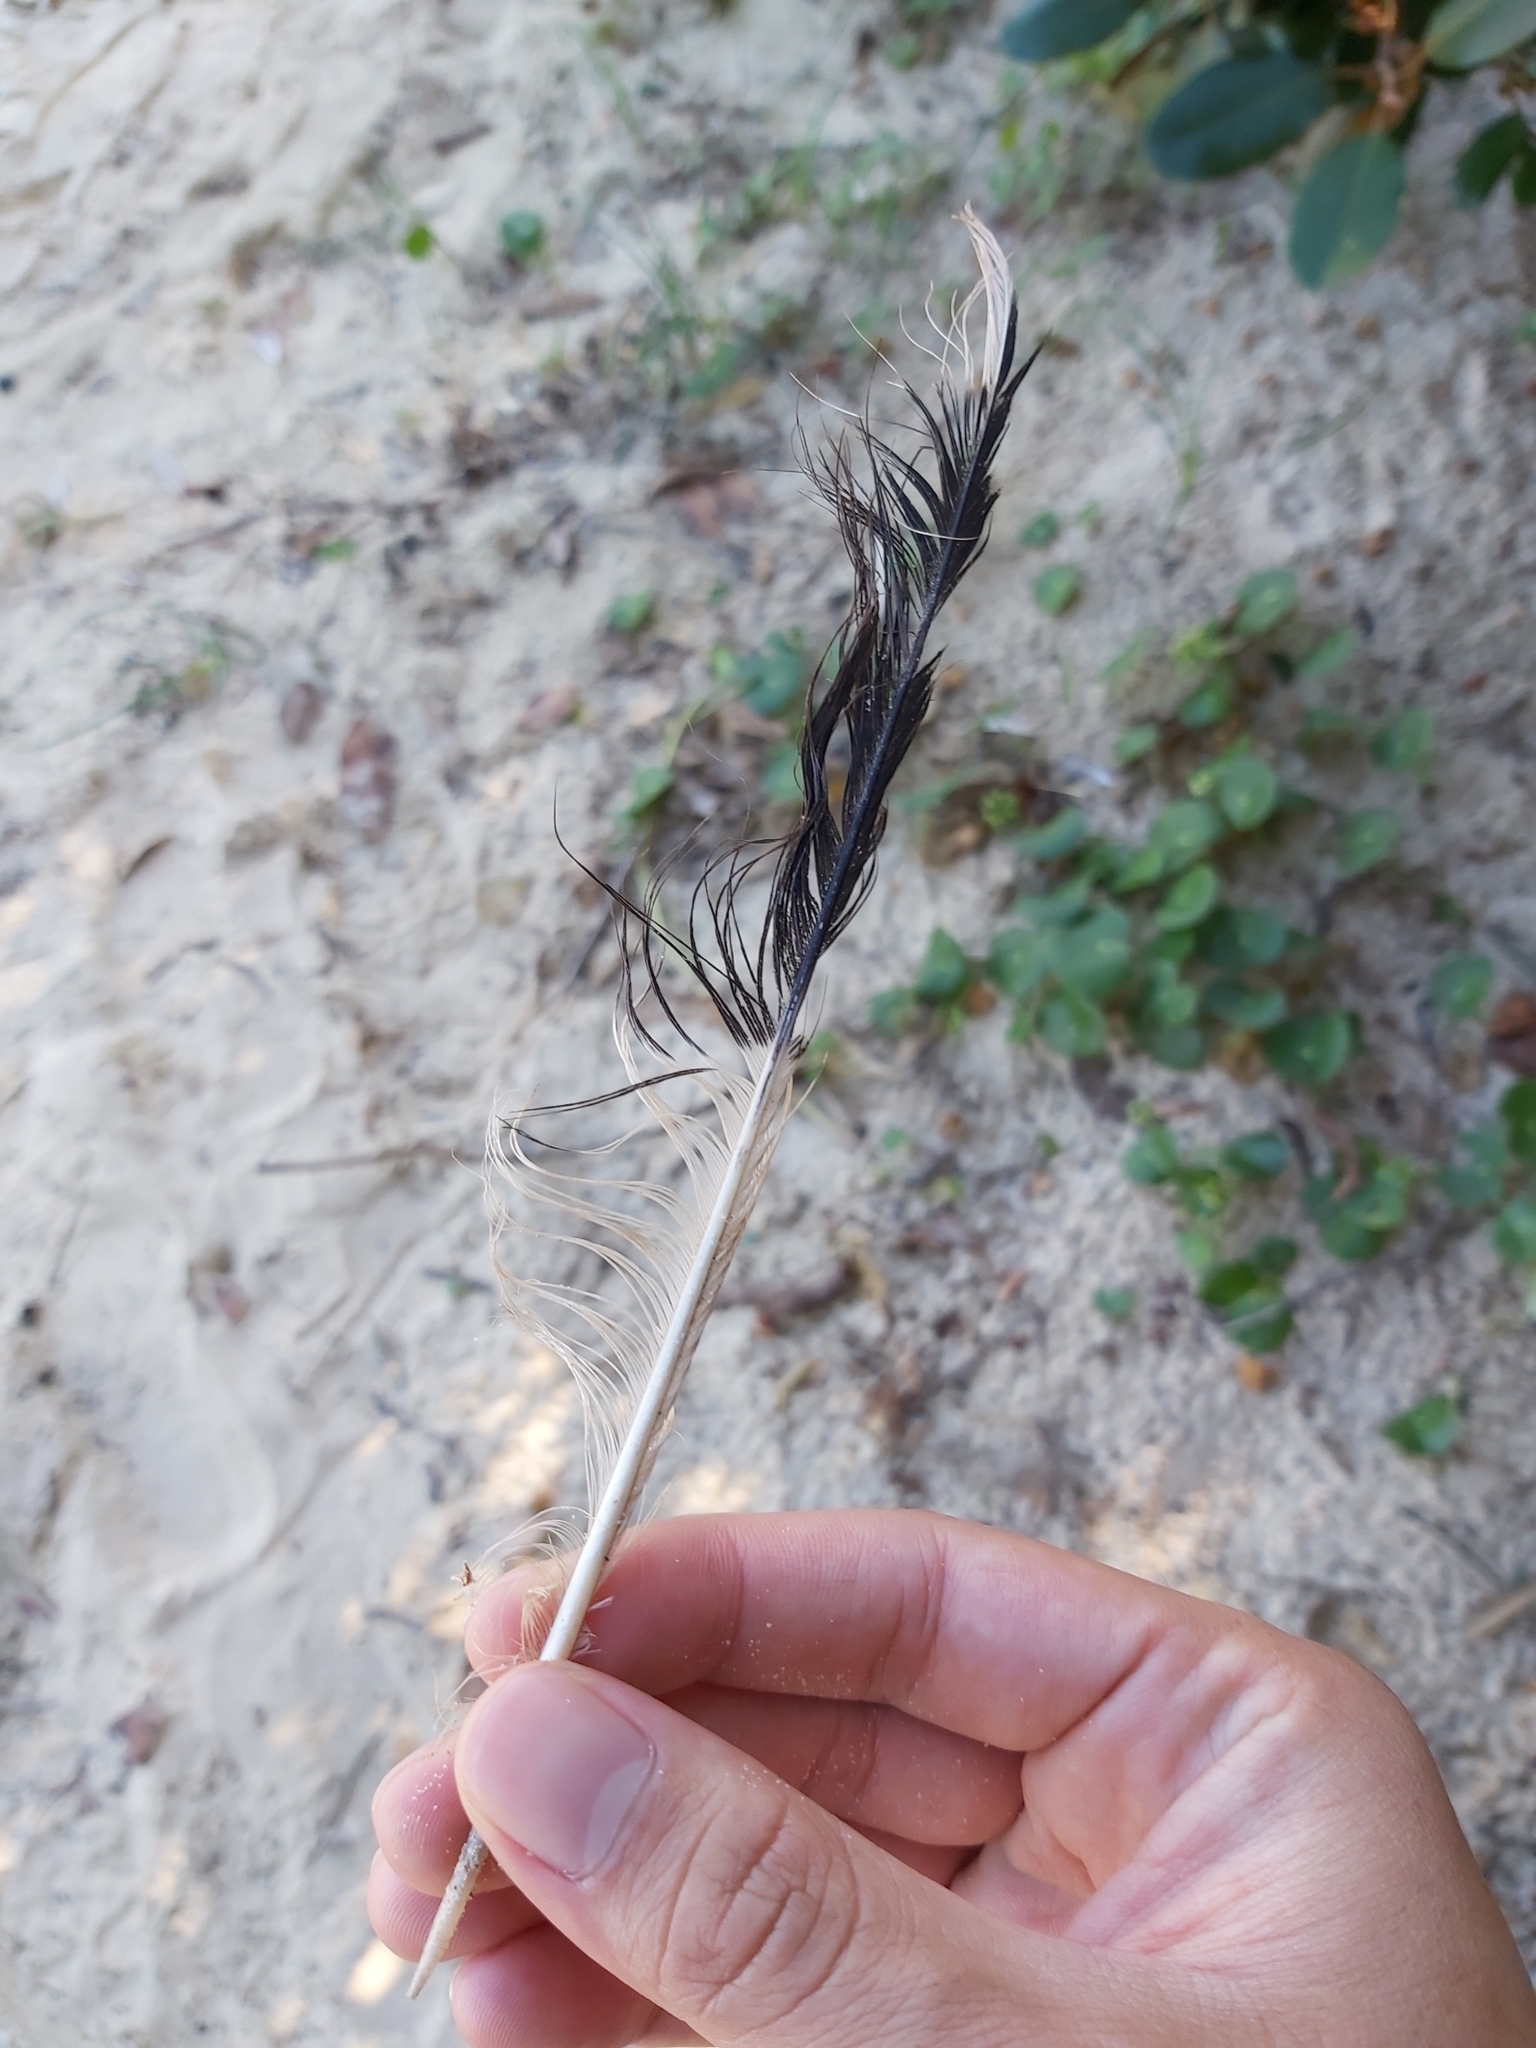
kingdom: Animalia
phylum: Chordata
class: Aves
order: Passeriformes
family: Cracticidae
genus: Strepera
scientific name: Strepera graculina
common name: Pied currawong
